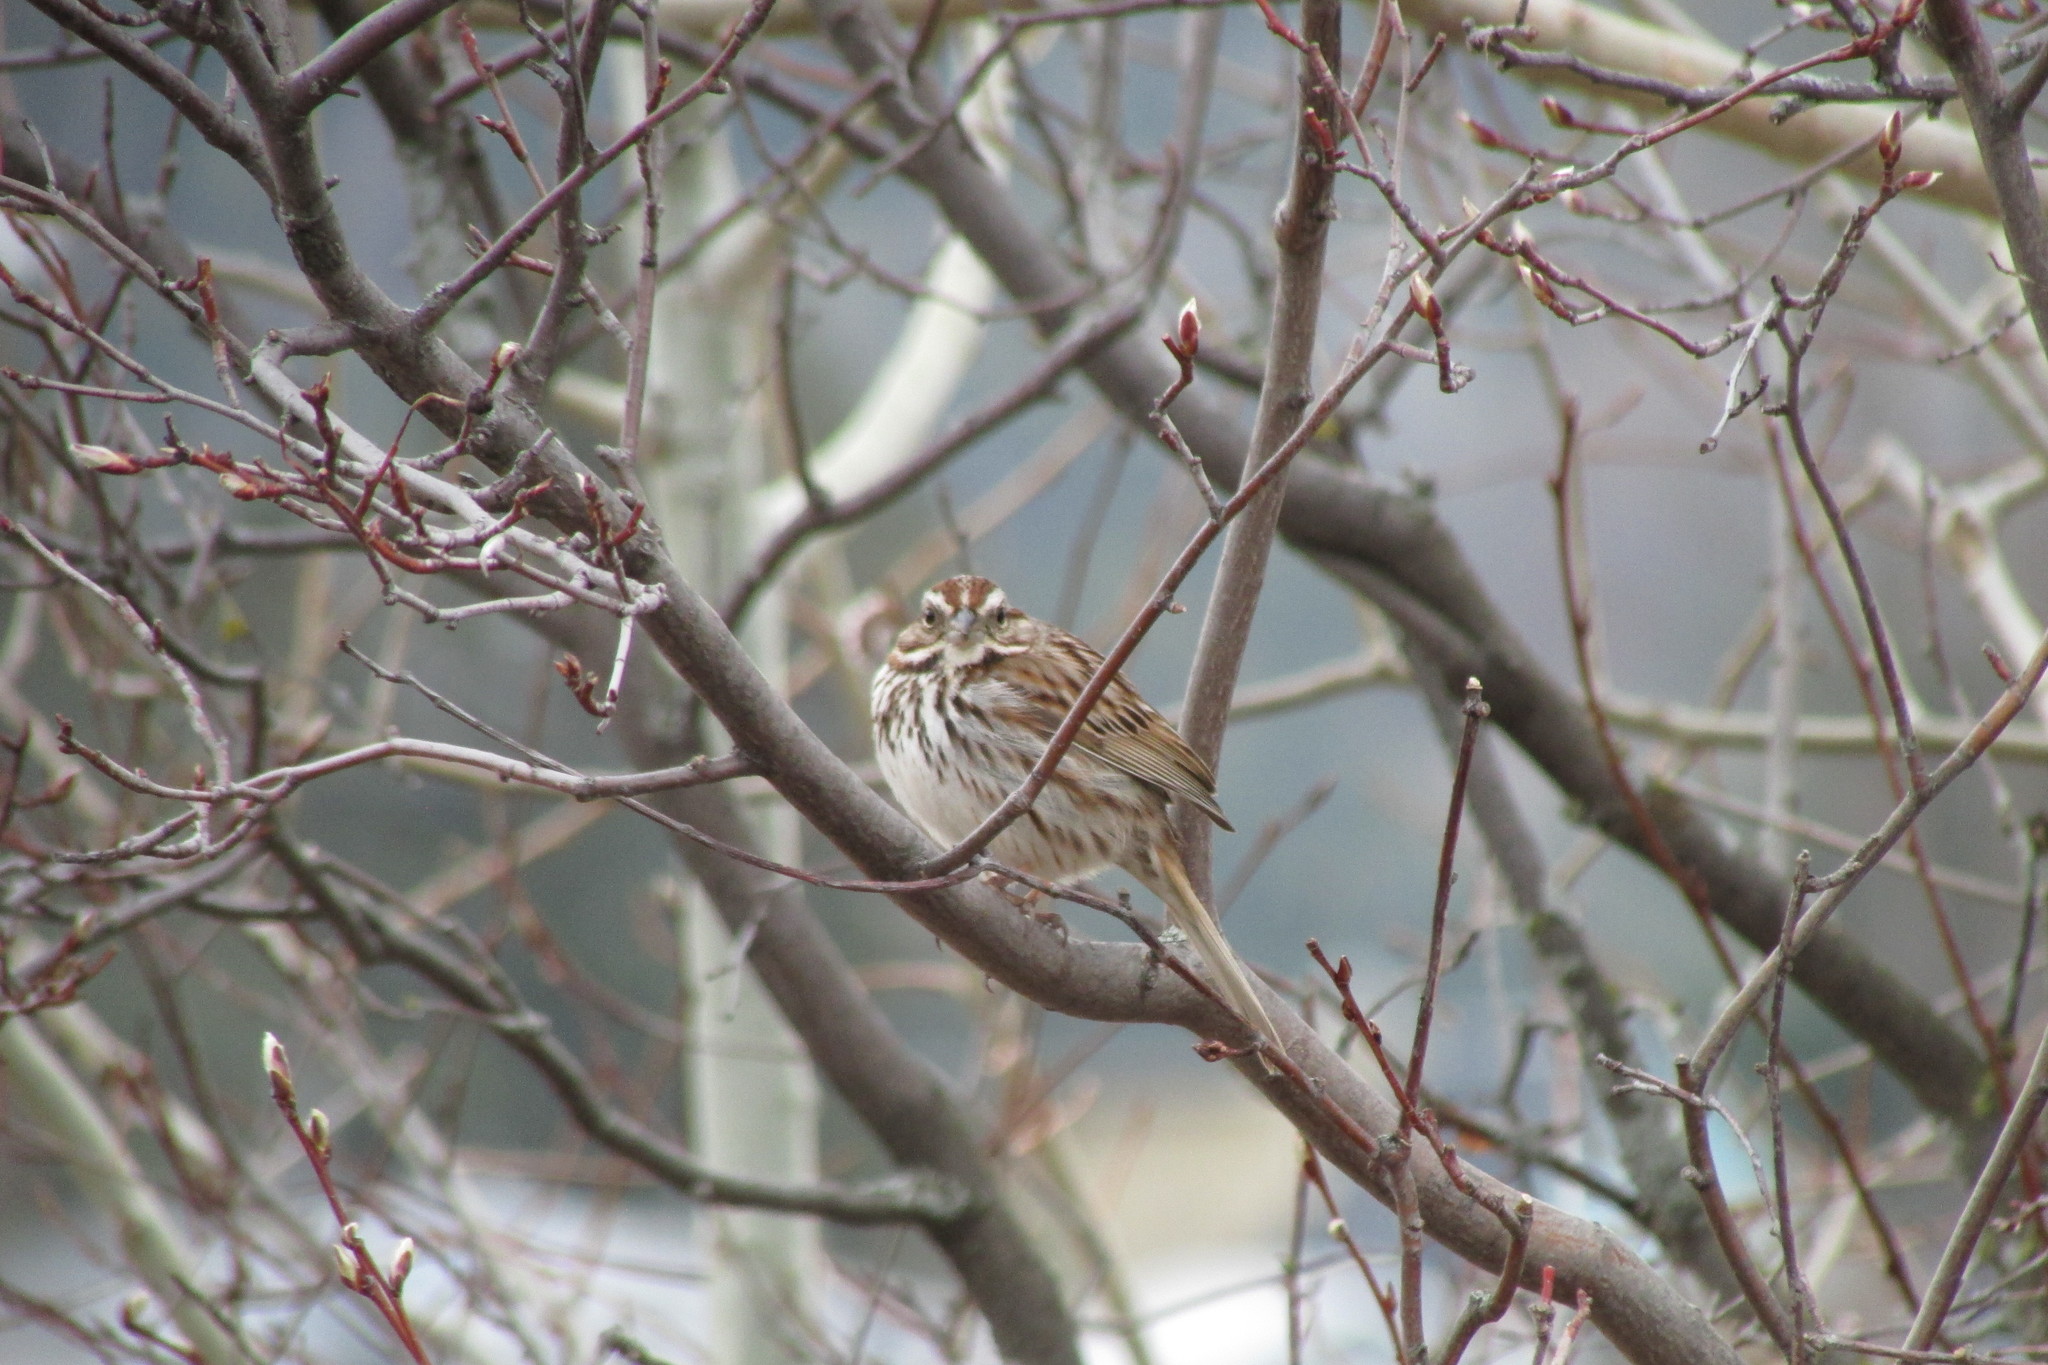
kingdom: Animalia
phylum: Chordata
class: Aves
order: Passeriformes
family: Passerellidae
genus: Melospiza
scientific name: Melospiza melodia
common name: Song sparrow
